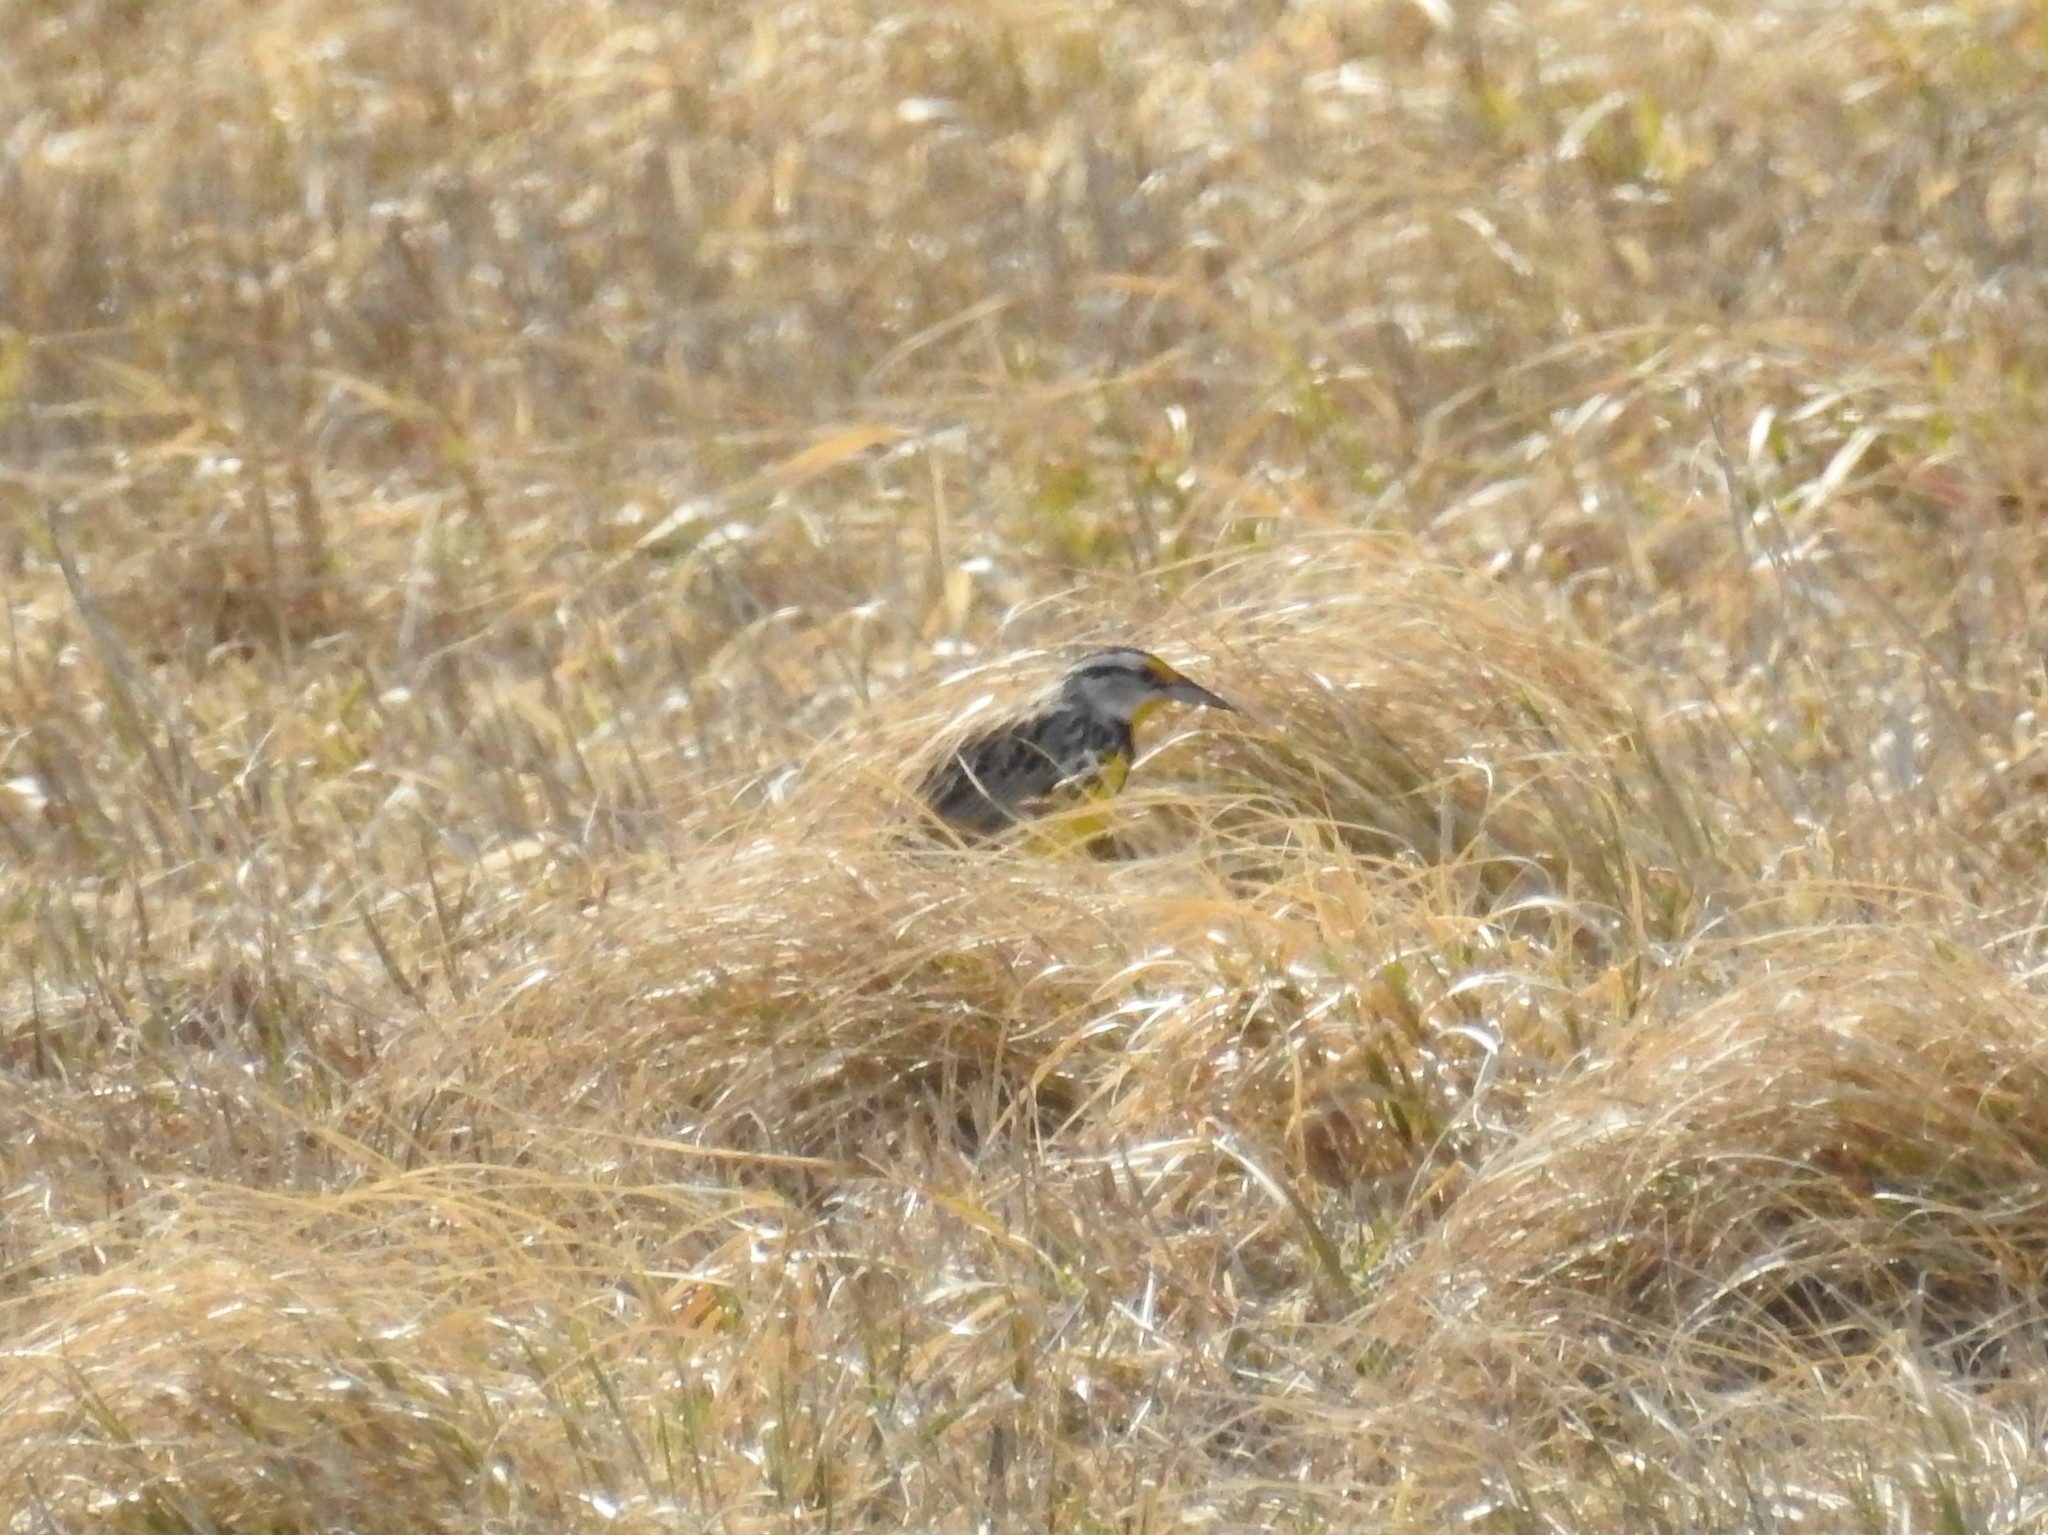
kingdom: Animalia
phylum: Chordata
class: Aves
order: Passeriformes
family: Icteridae
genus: Sturnella
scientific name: Sturnella magna
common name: Eastern meadowlark
